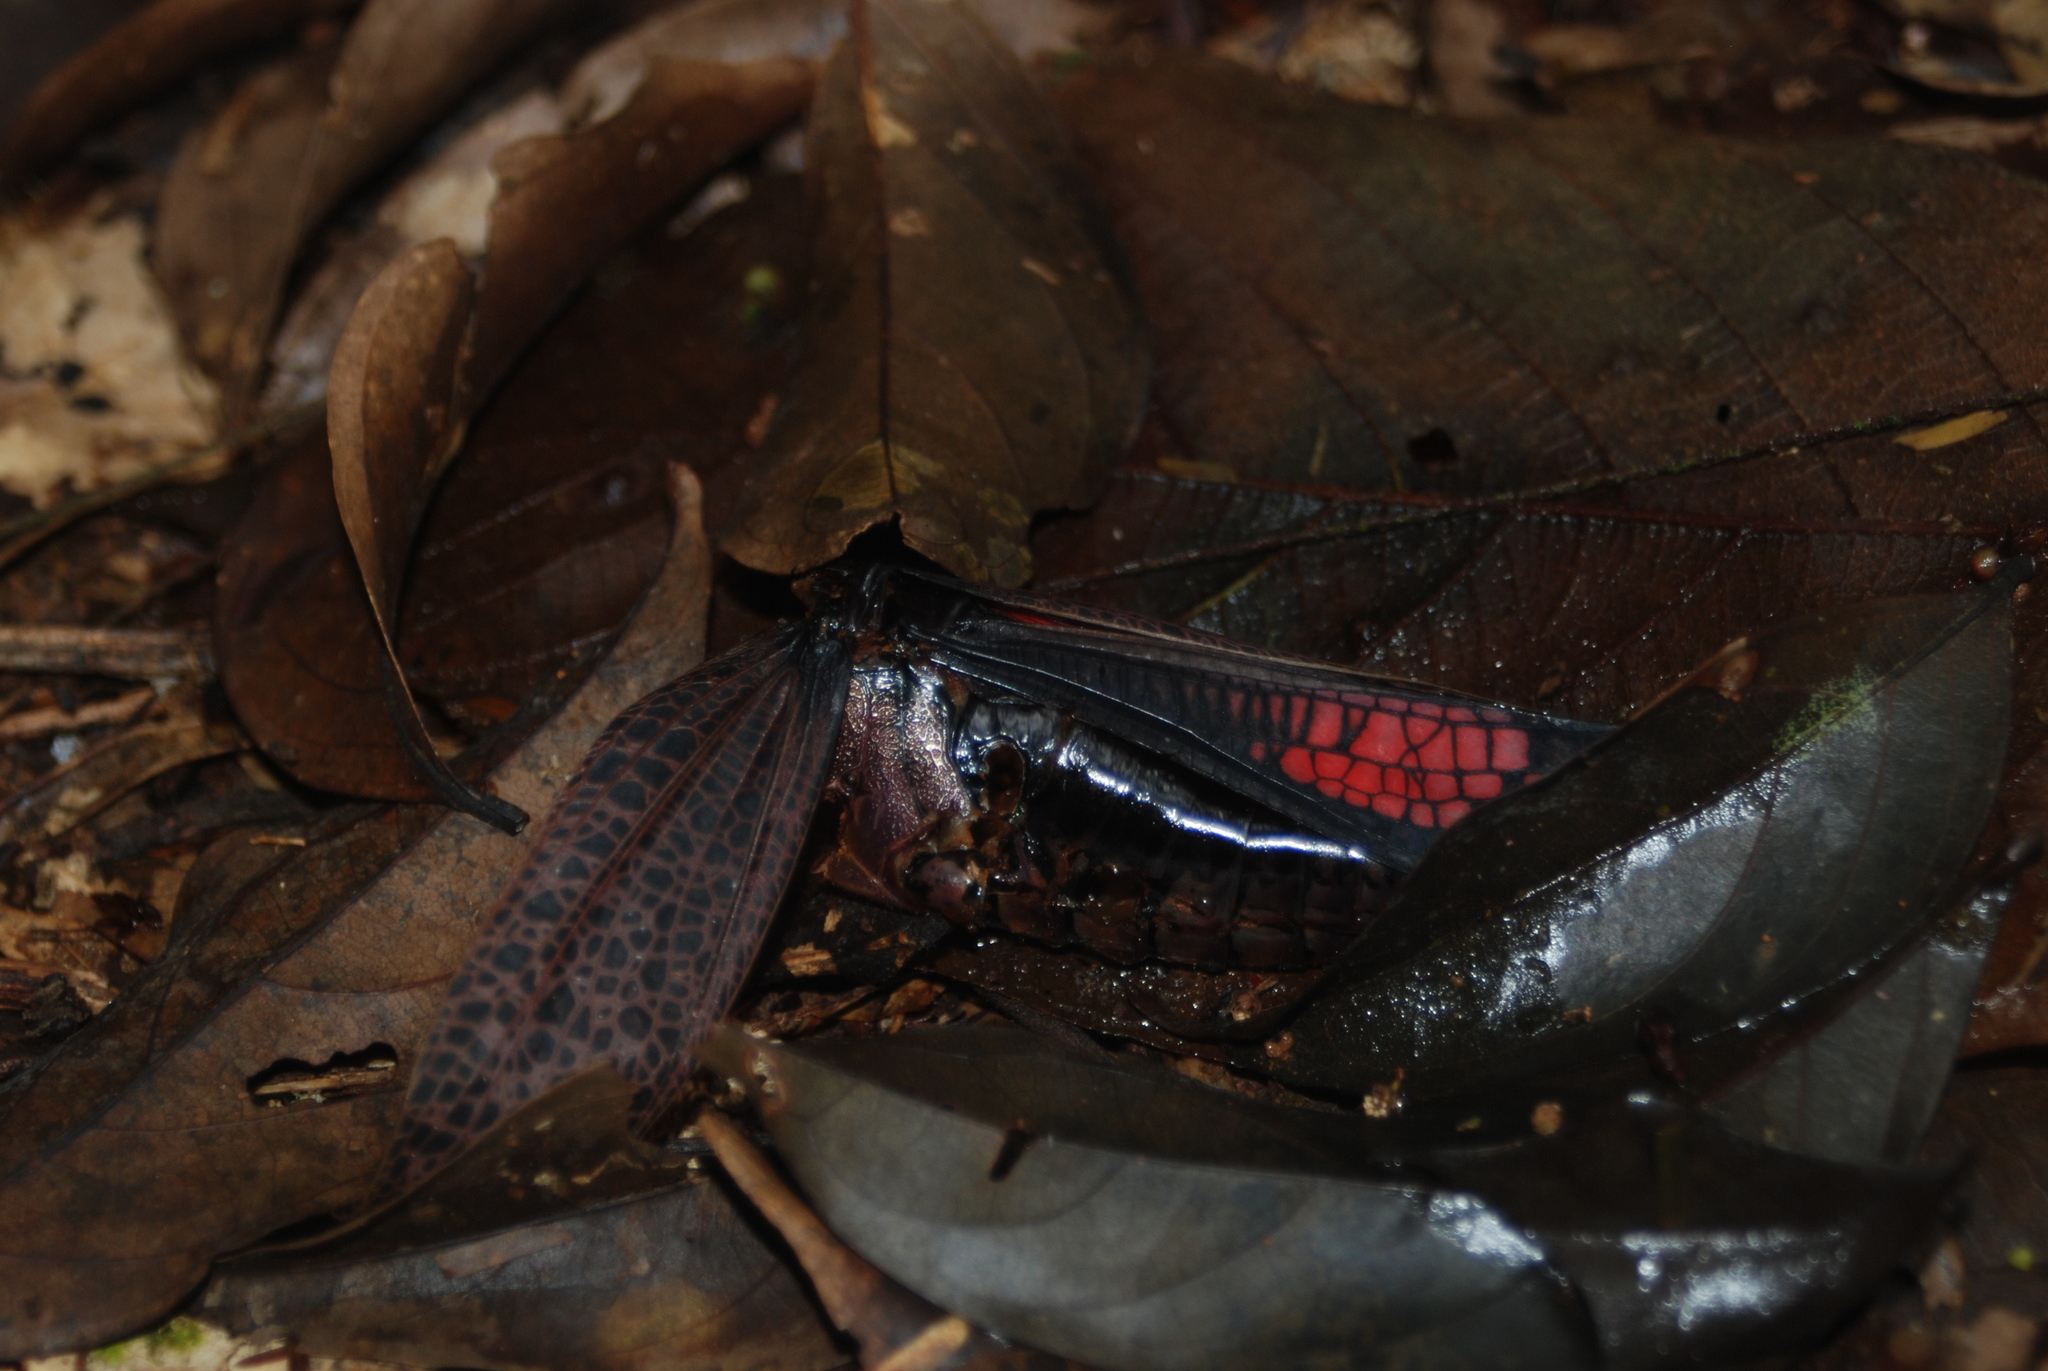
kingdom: Animalia
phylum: Arthropoda
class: Insecta
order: Orthoptera
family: Romaleidae
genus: Romalea
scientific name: Romalea
